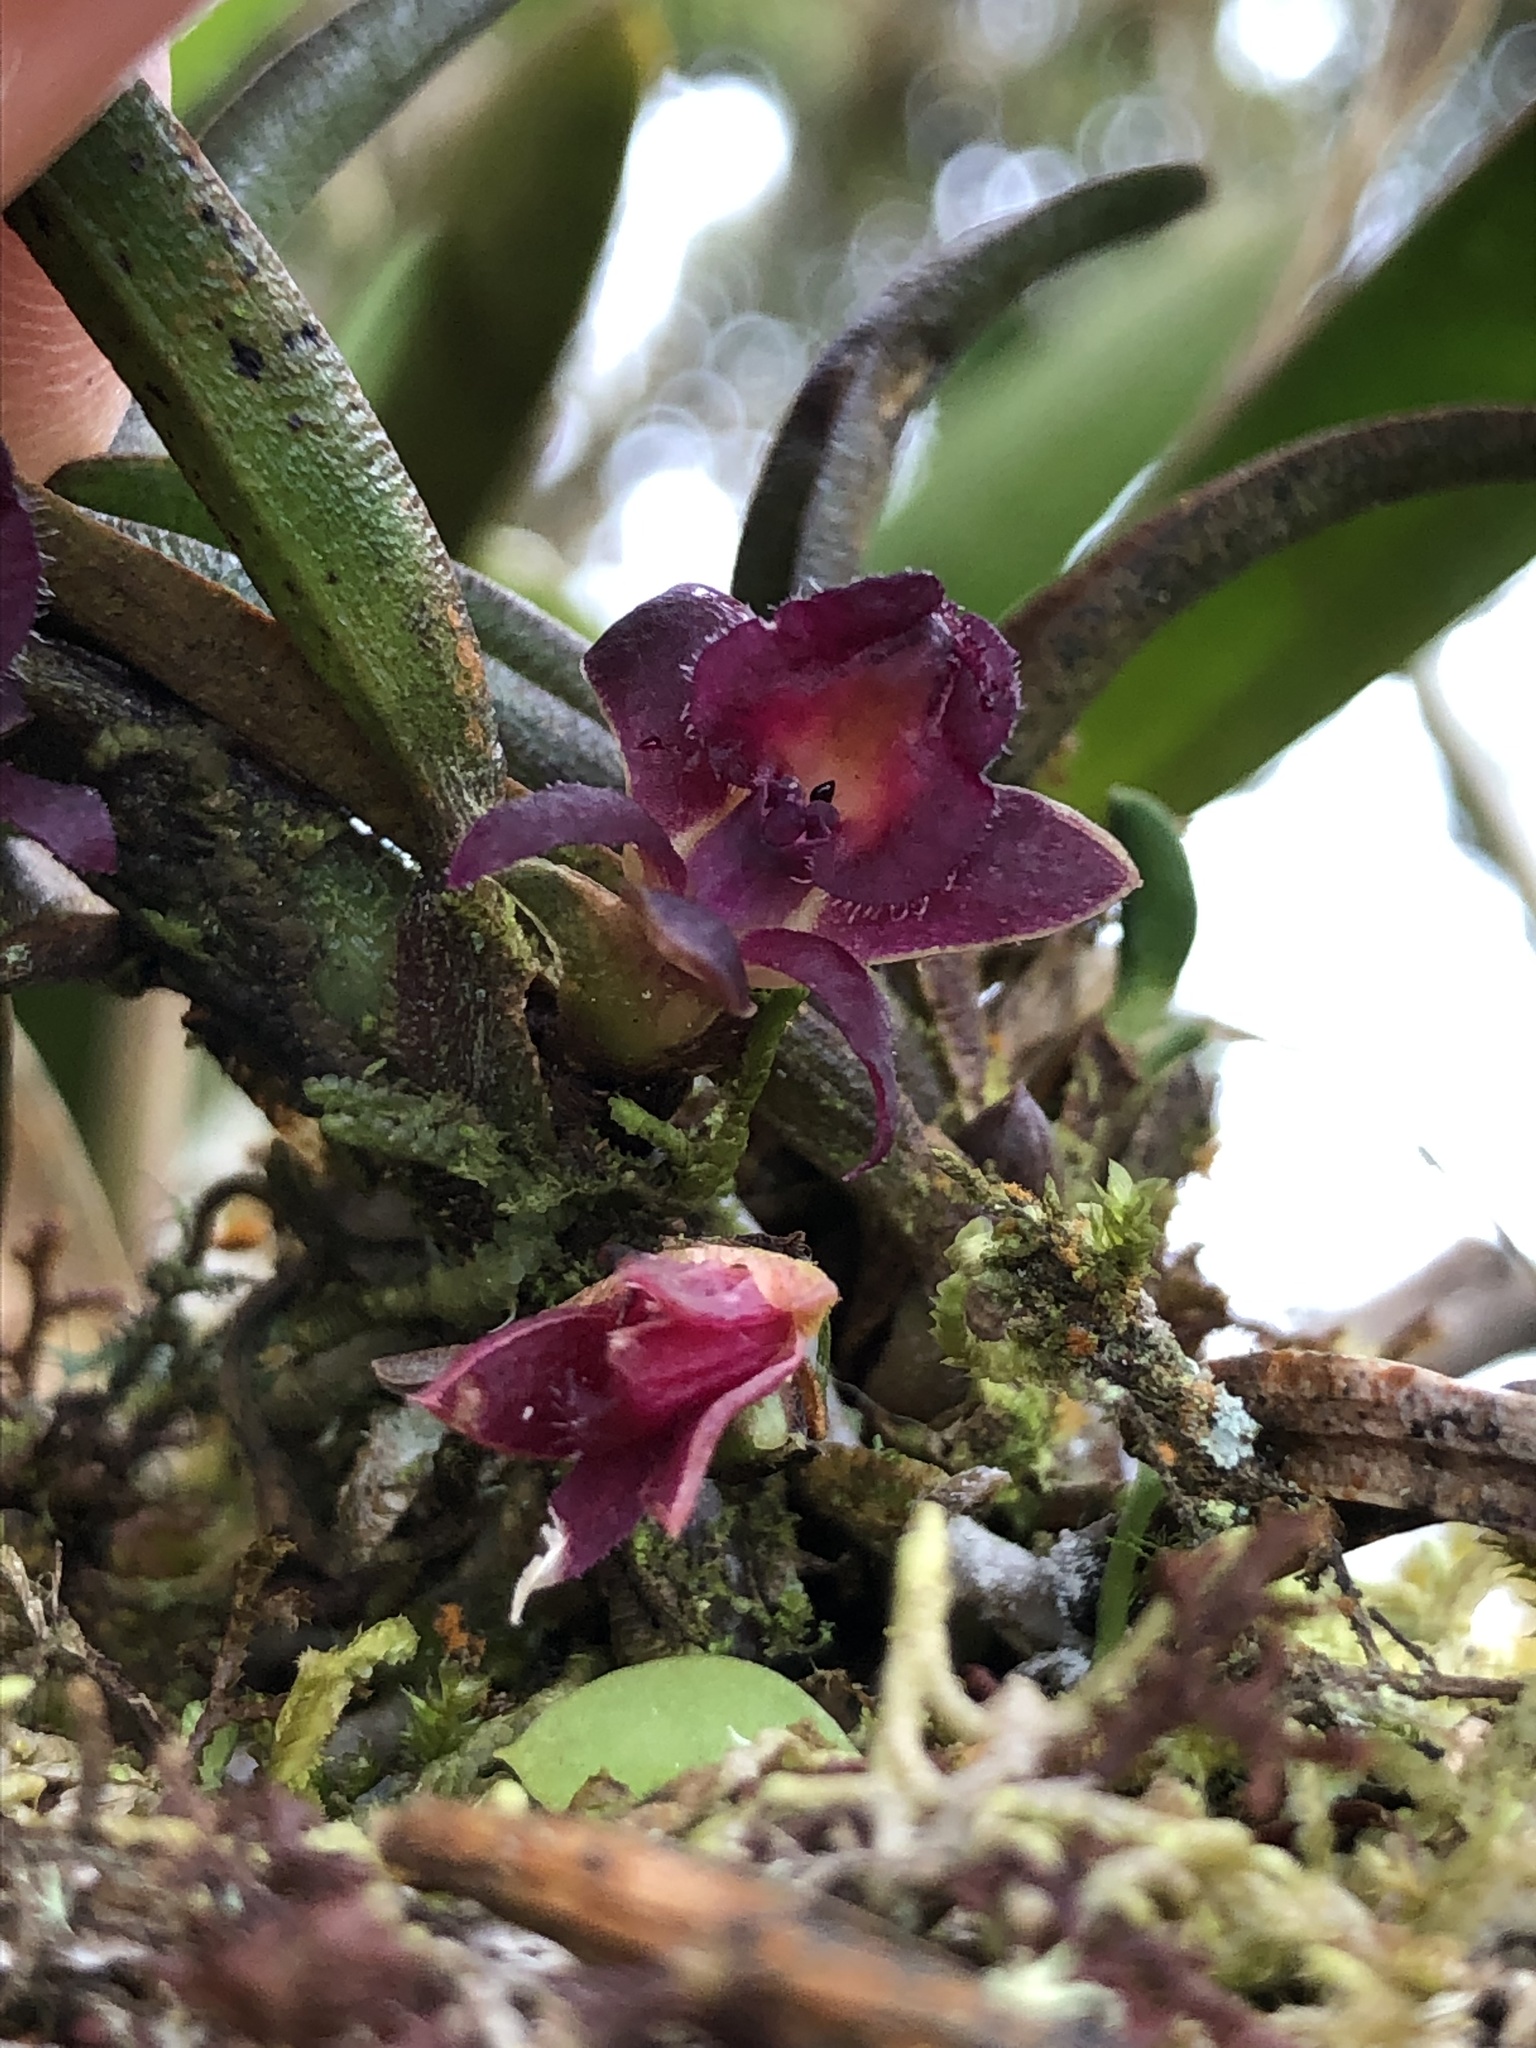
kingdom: Plantae
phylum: Tracheophyta
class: Liliopsida
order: Asparagales
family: Orchidaceae
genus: Epidendrum
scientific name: Epidendrum rhodovandoides
